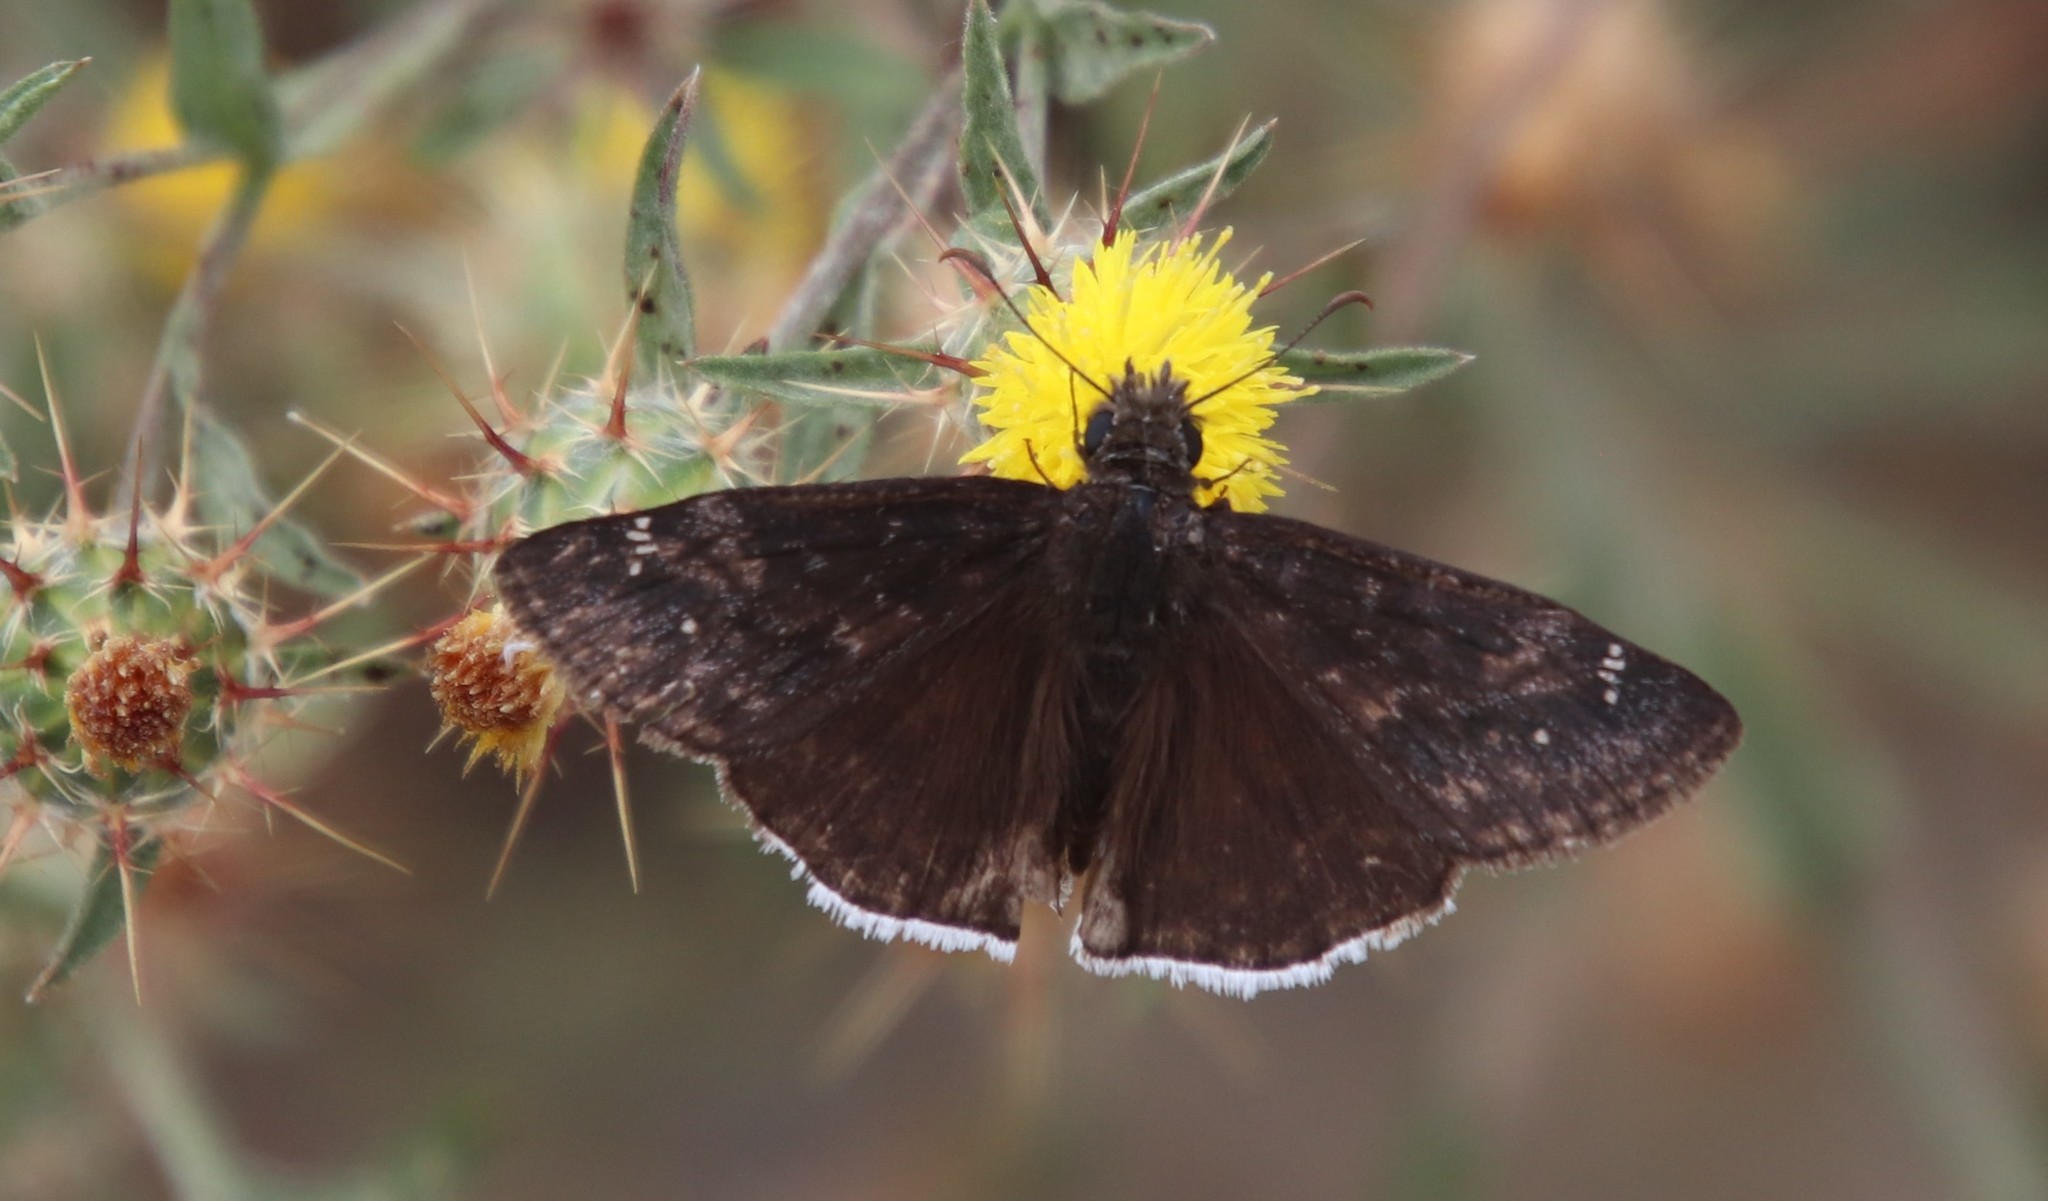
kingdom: Animalia
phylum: Arthropoda
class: Insecta
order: Lepidoptera
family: Hesperiidae
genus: Erynnis
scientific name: Erynnis funeralis
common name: Funereal duskywing
